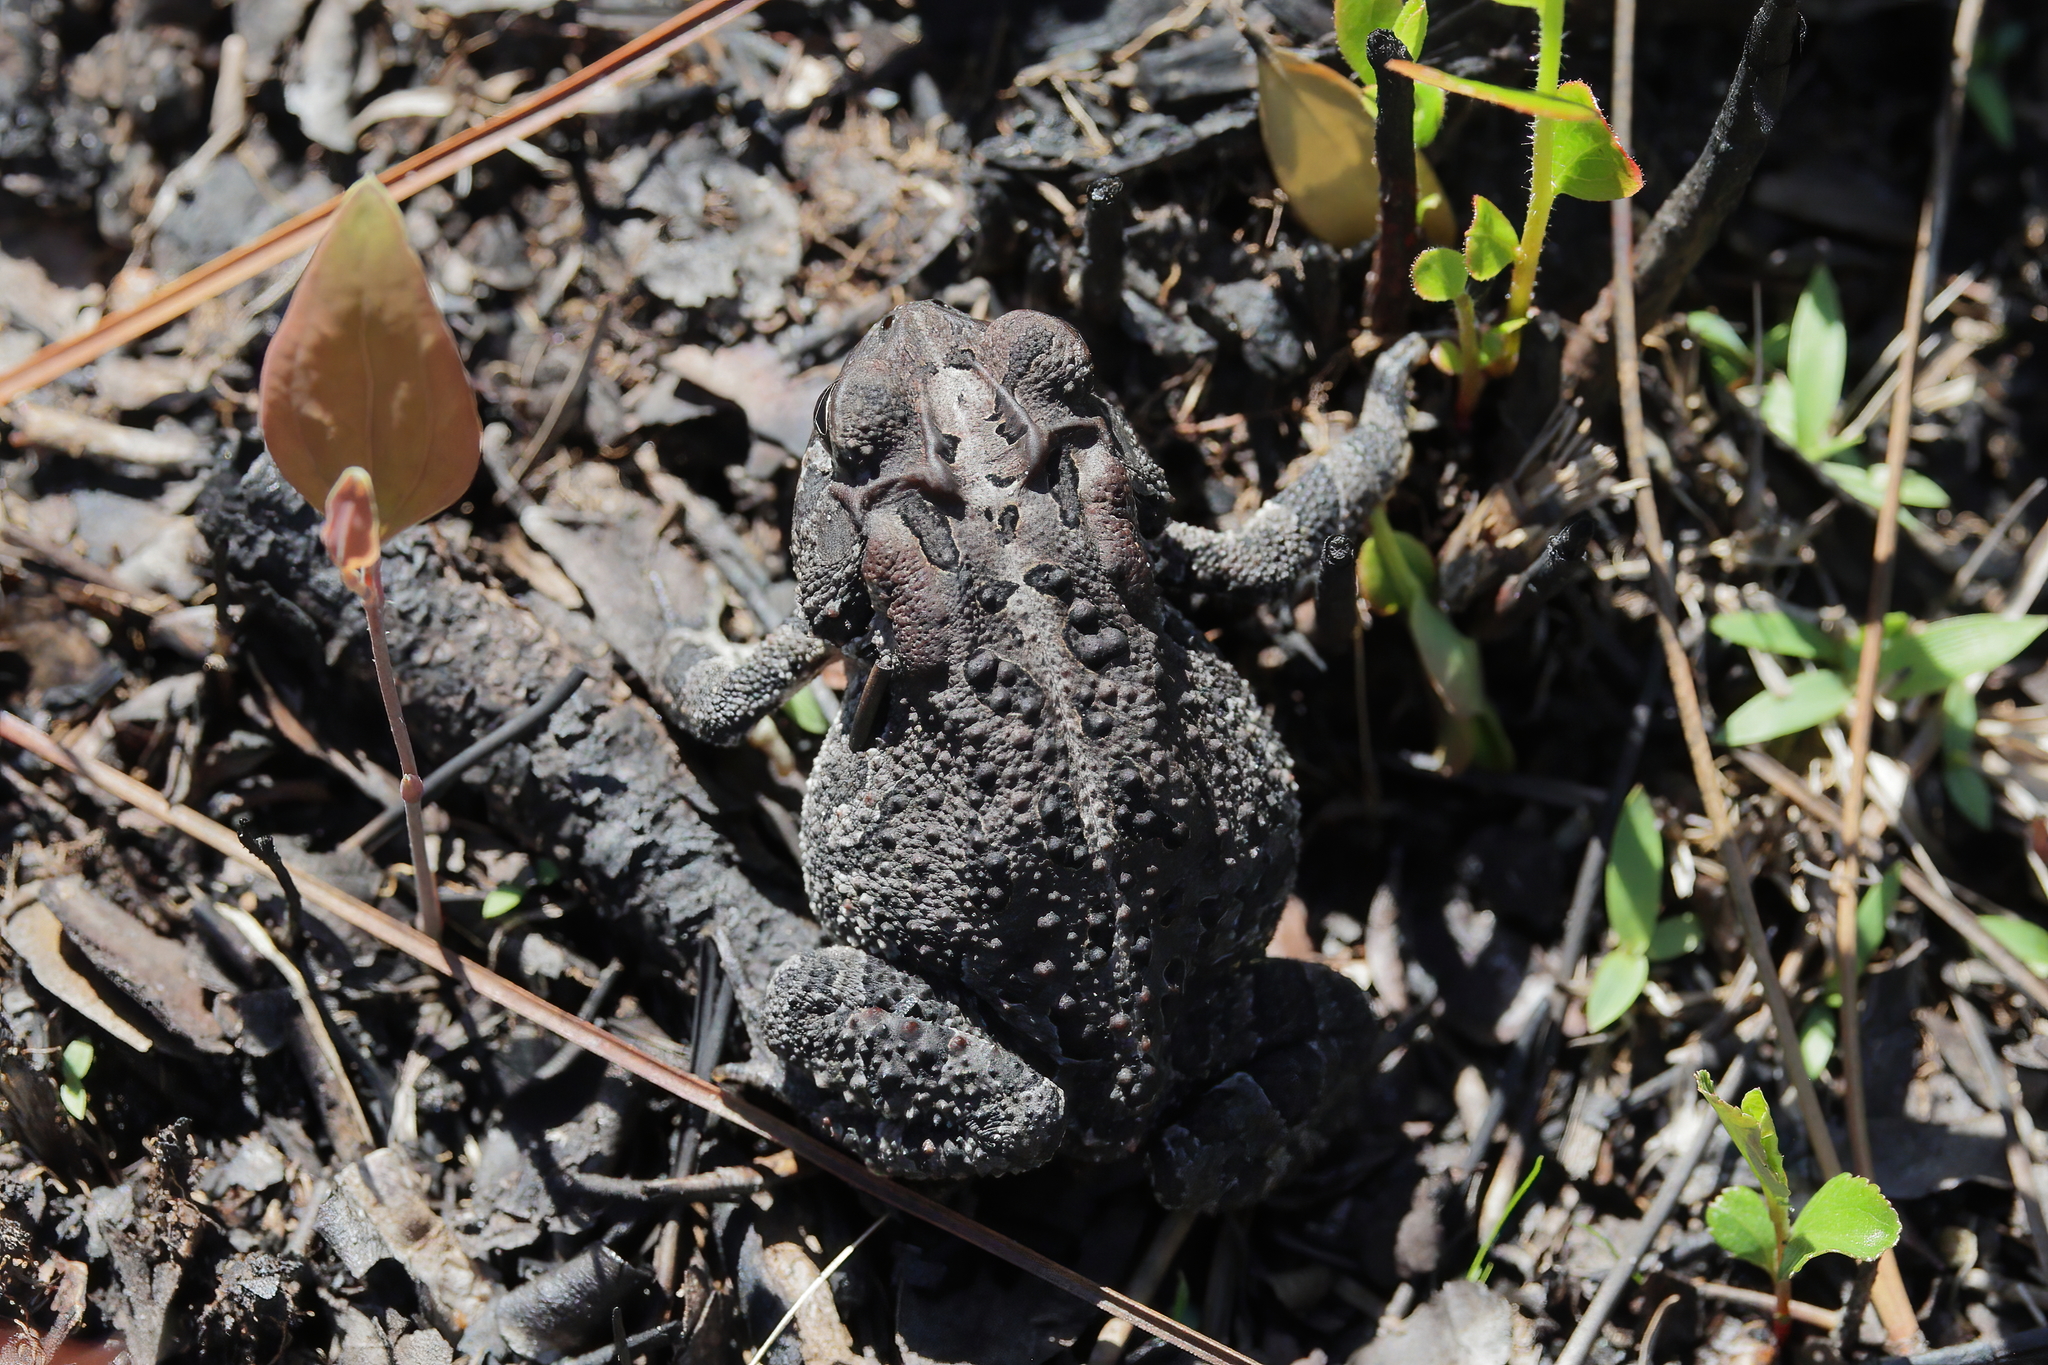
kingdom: Animalia
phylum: Chordata
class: Amphibia
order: Anura
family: Bufonidae
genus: Anaxyrus
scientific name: Anaxyrus terrestris
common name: Southern toad
